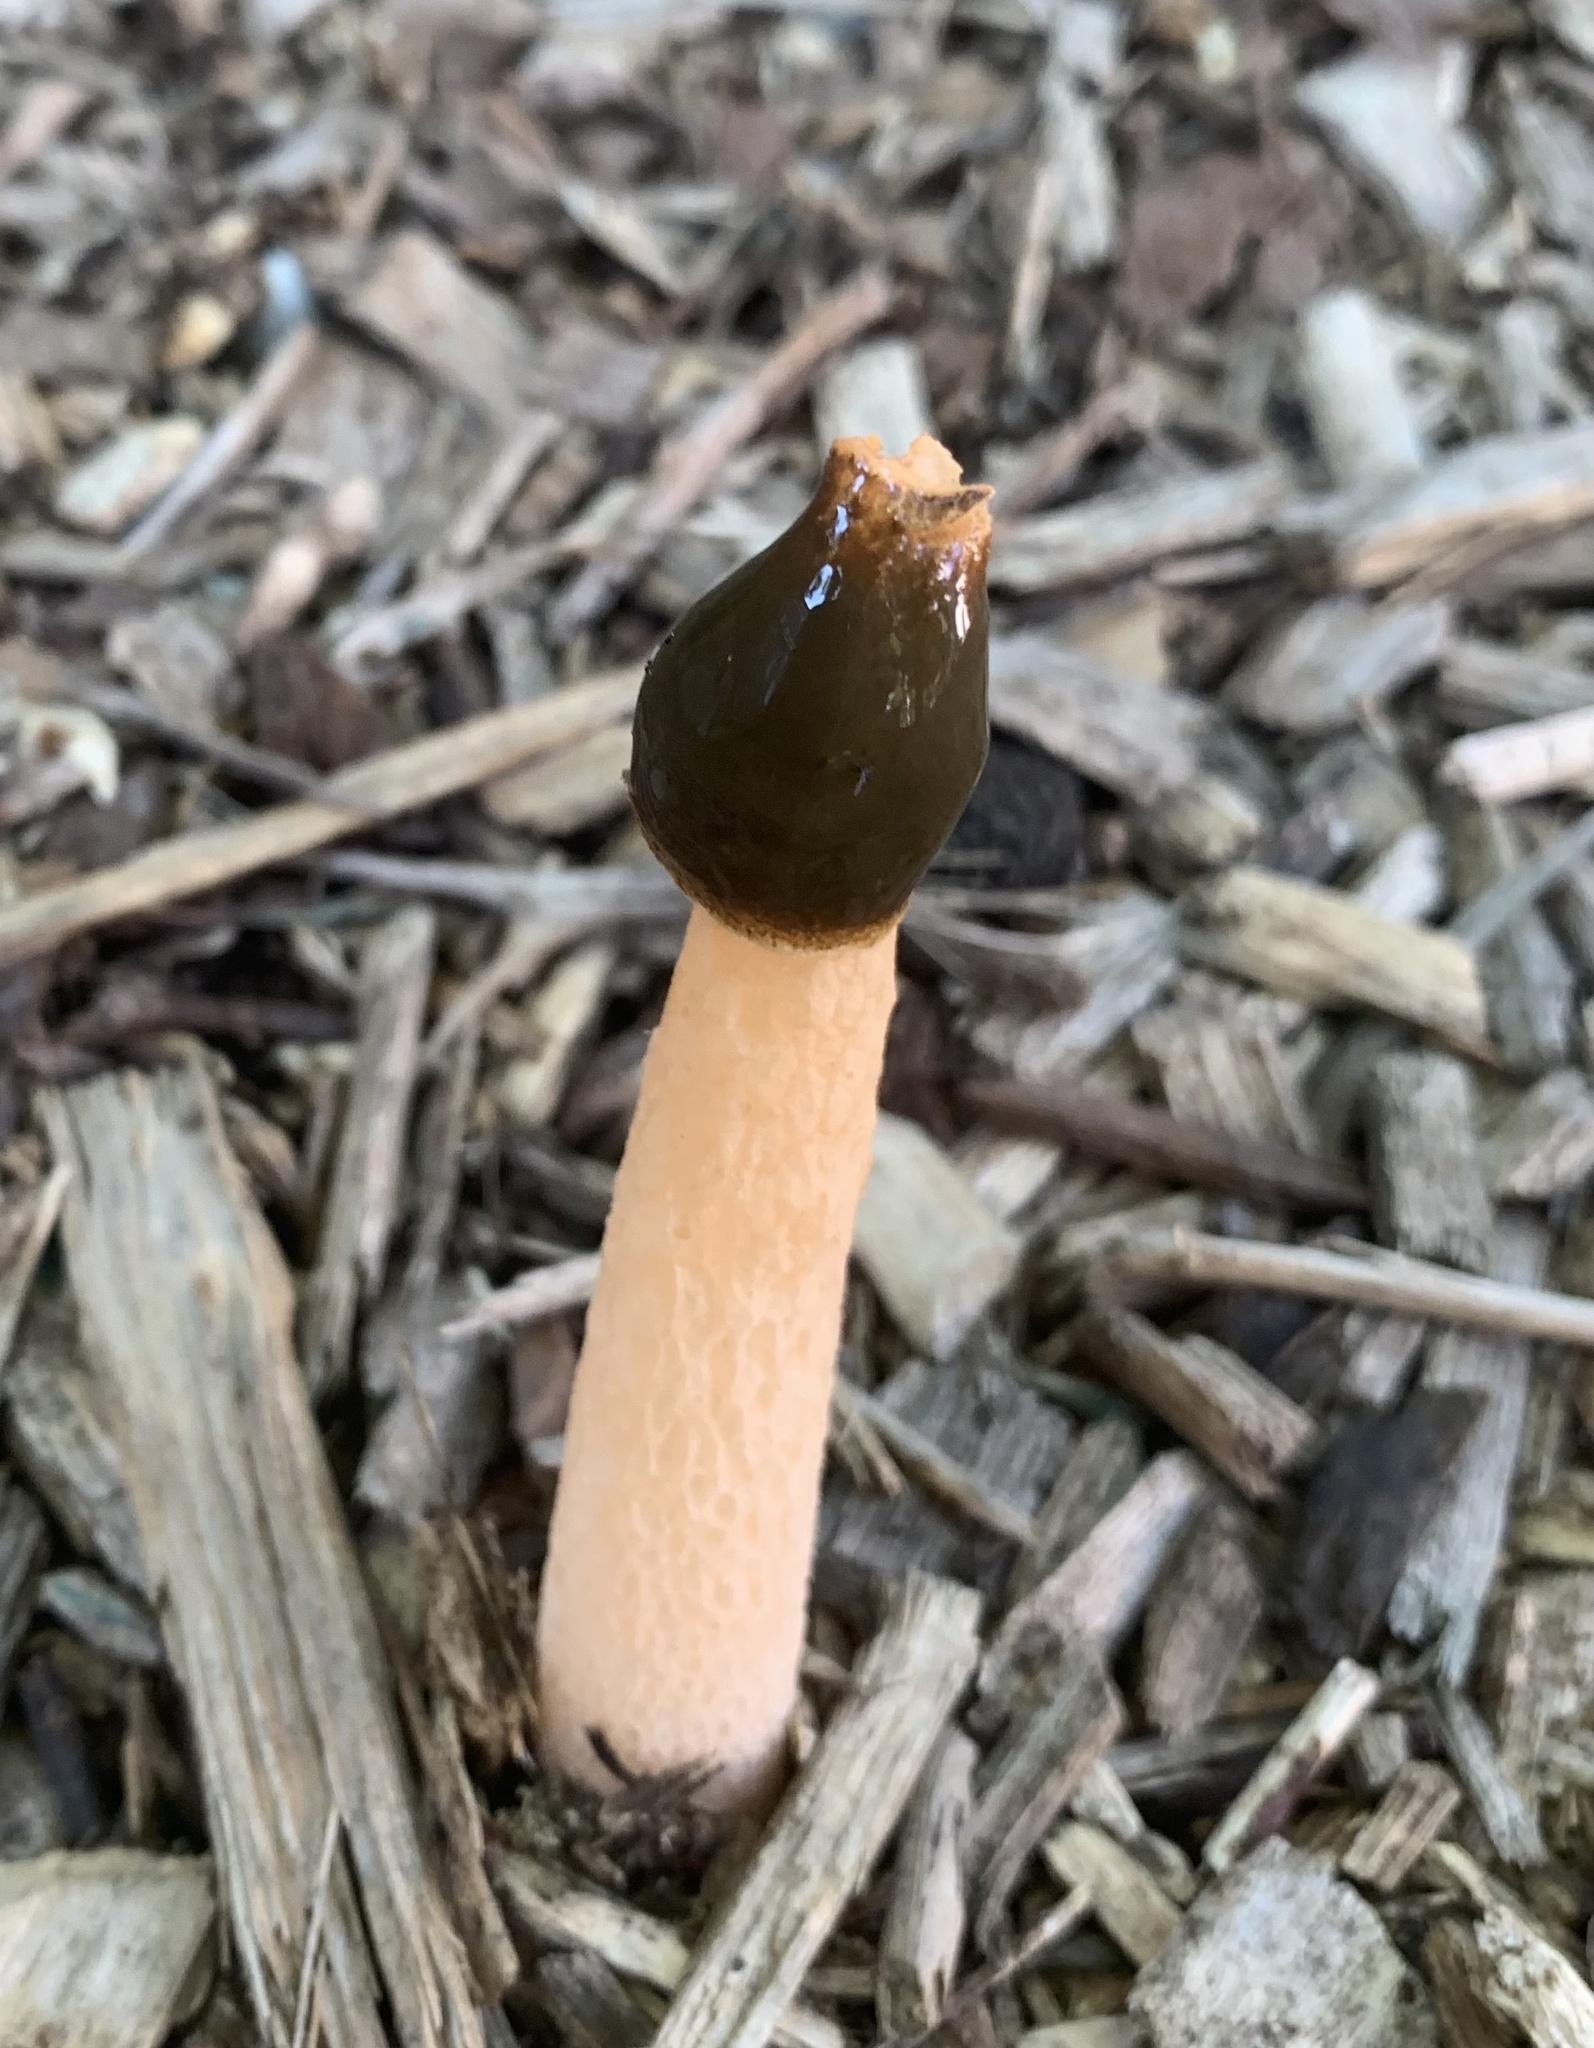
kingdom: Fungi
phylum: Basidiomycota
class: Agaricomycetes
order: Phallales
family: Phallaceae
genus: Phallus
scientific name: Phallus rugulosus
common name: Wrinkly stinkhorn
